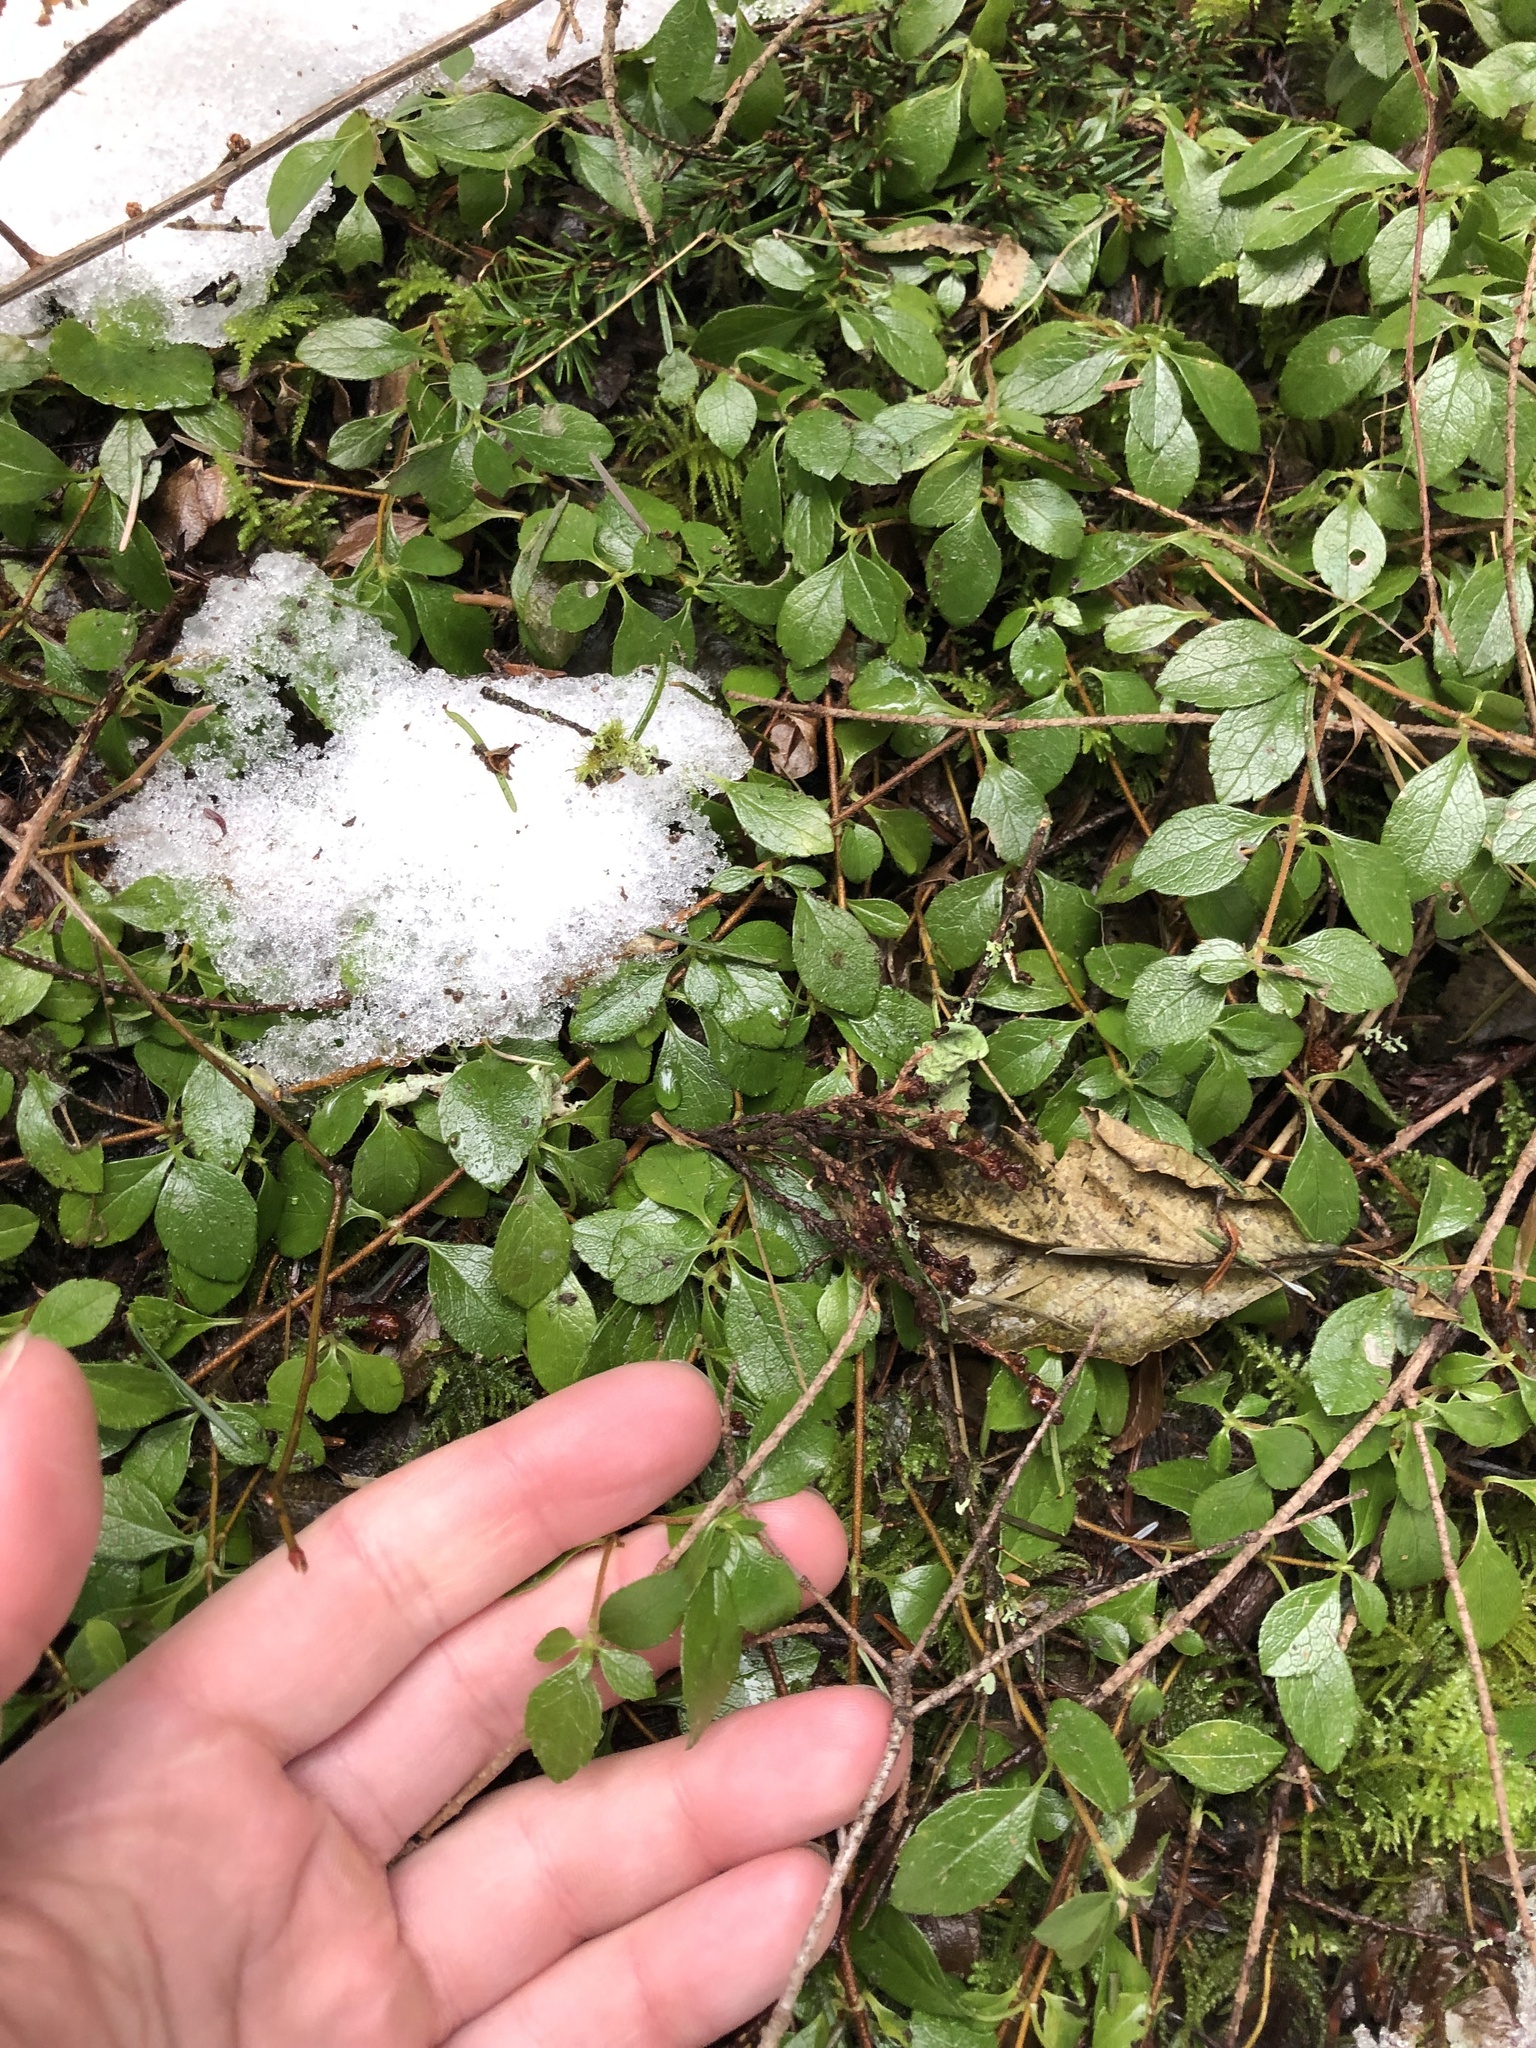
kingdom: Plantae
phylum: Tracheophyta
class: Magnoliopsida
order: Dipsacales
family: Caprifoliaceae
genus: Linnaea
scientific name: Linnaea borealis
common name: Twinflower
